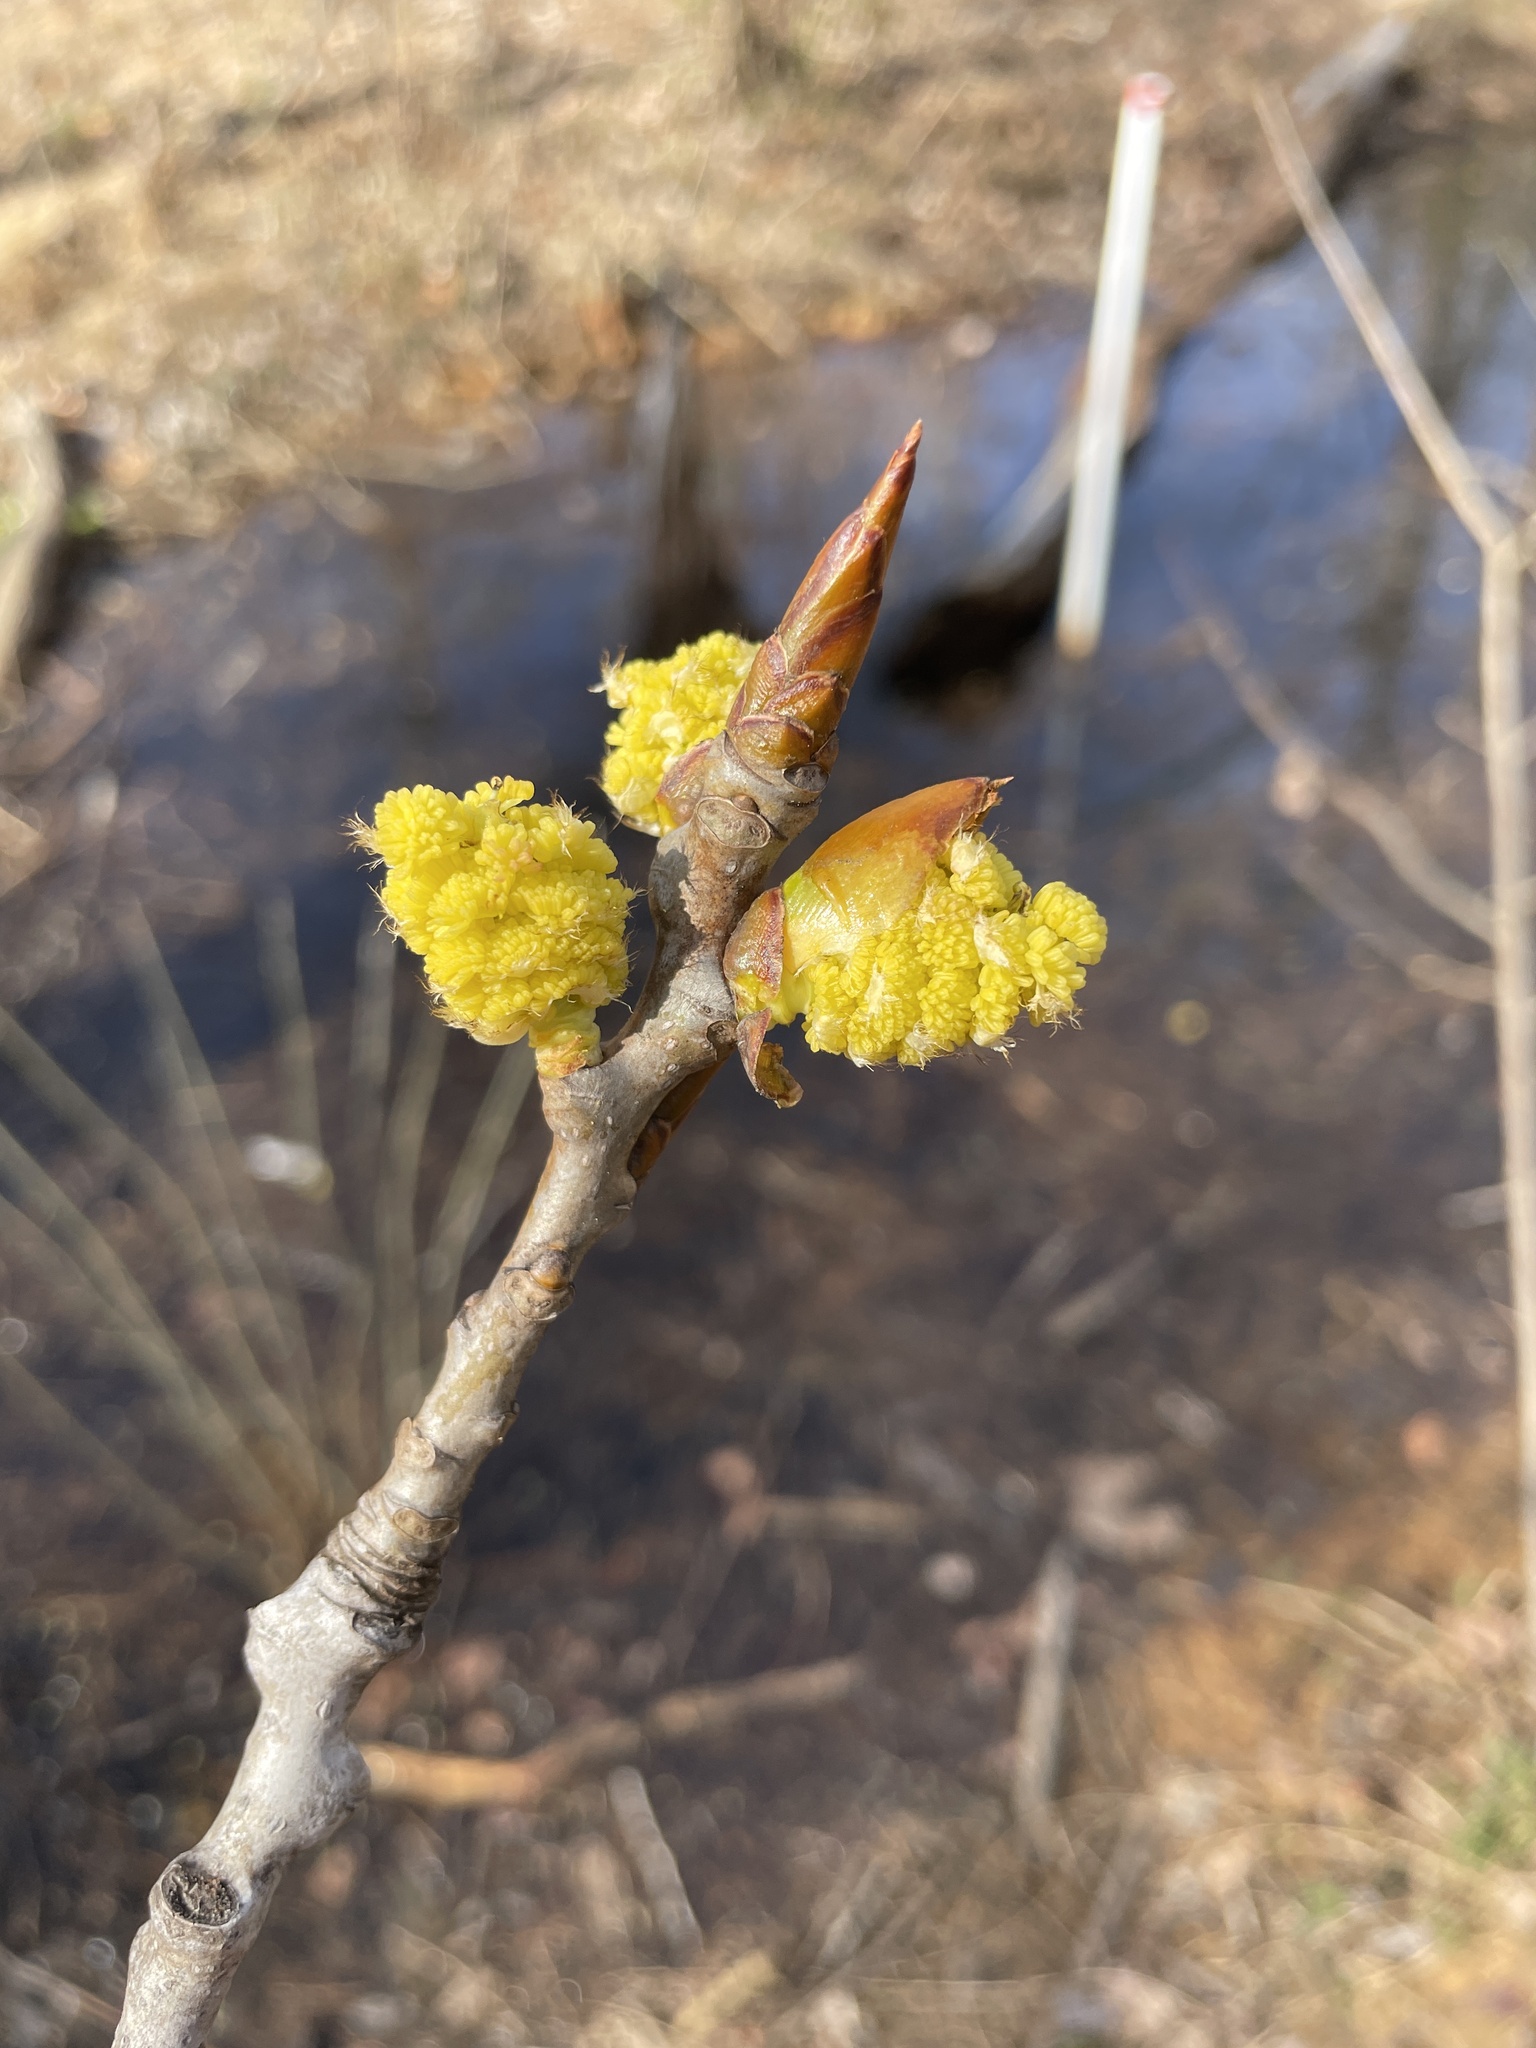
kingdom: Plantae
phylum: Tracheophyta
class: Magnoliopsida
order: Malpighiales
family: Salicaceae
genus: Populus
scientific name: Populus deltoides
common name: Eastern cottonwood
